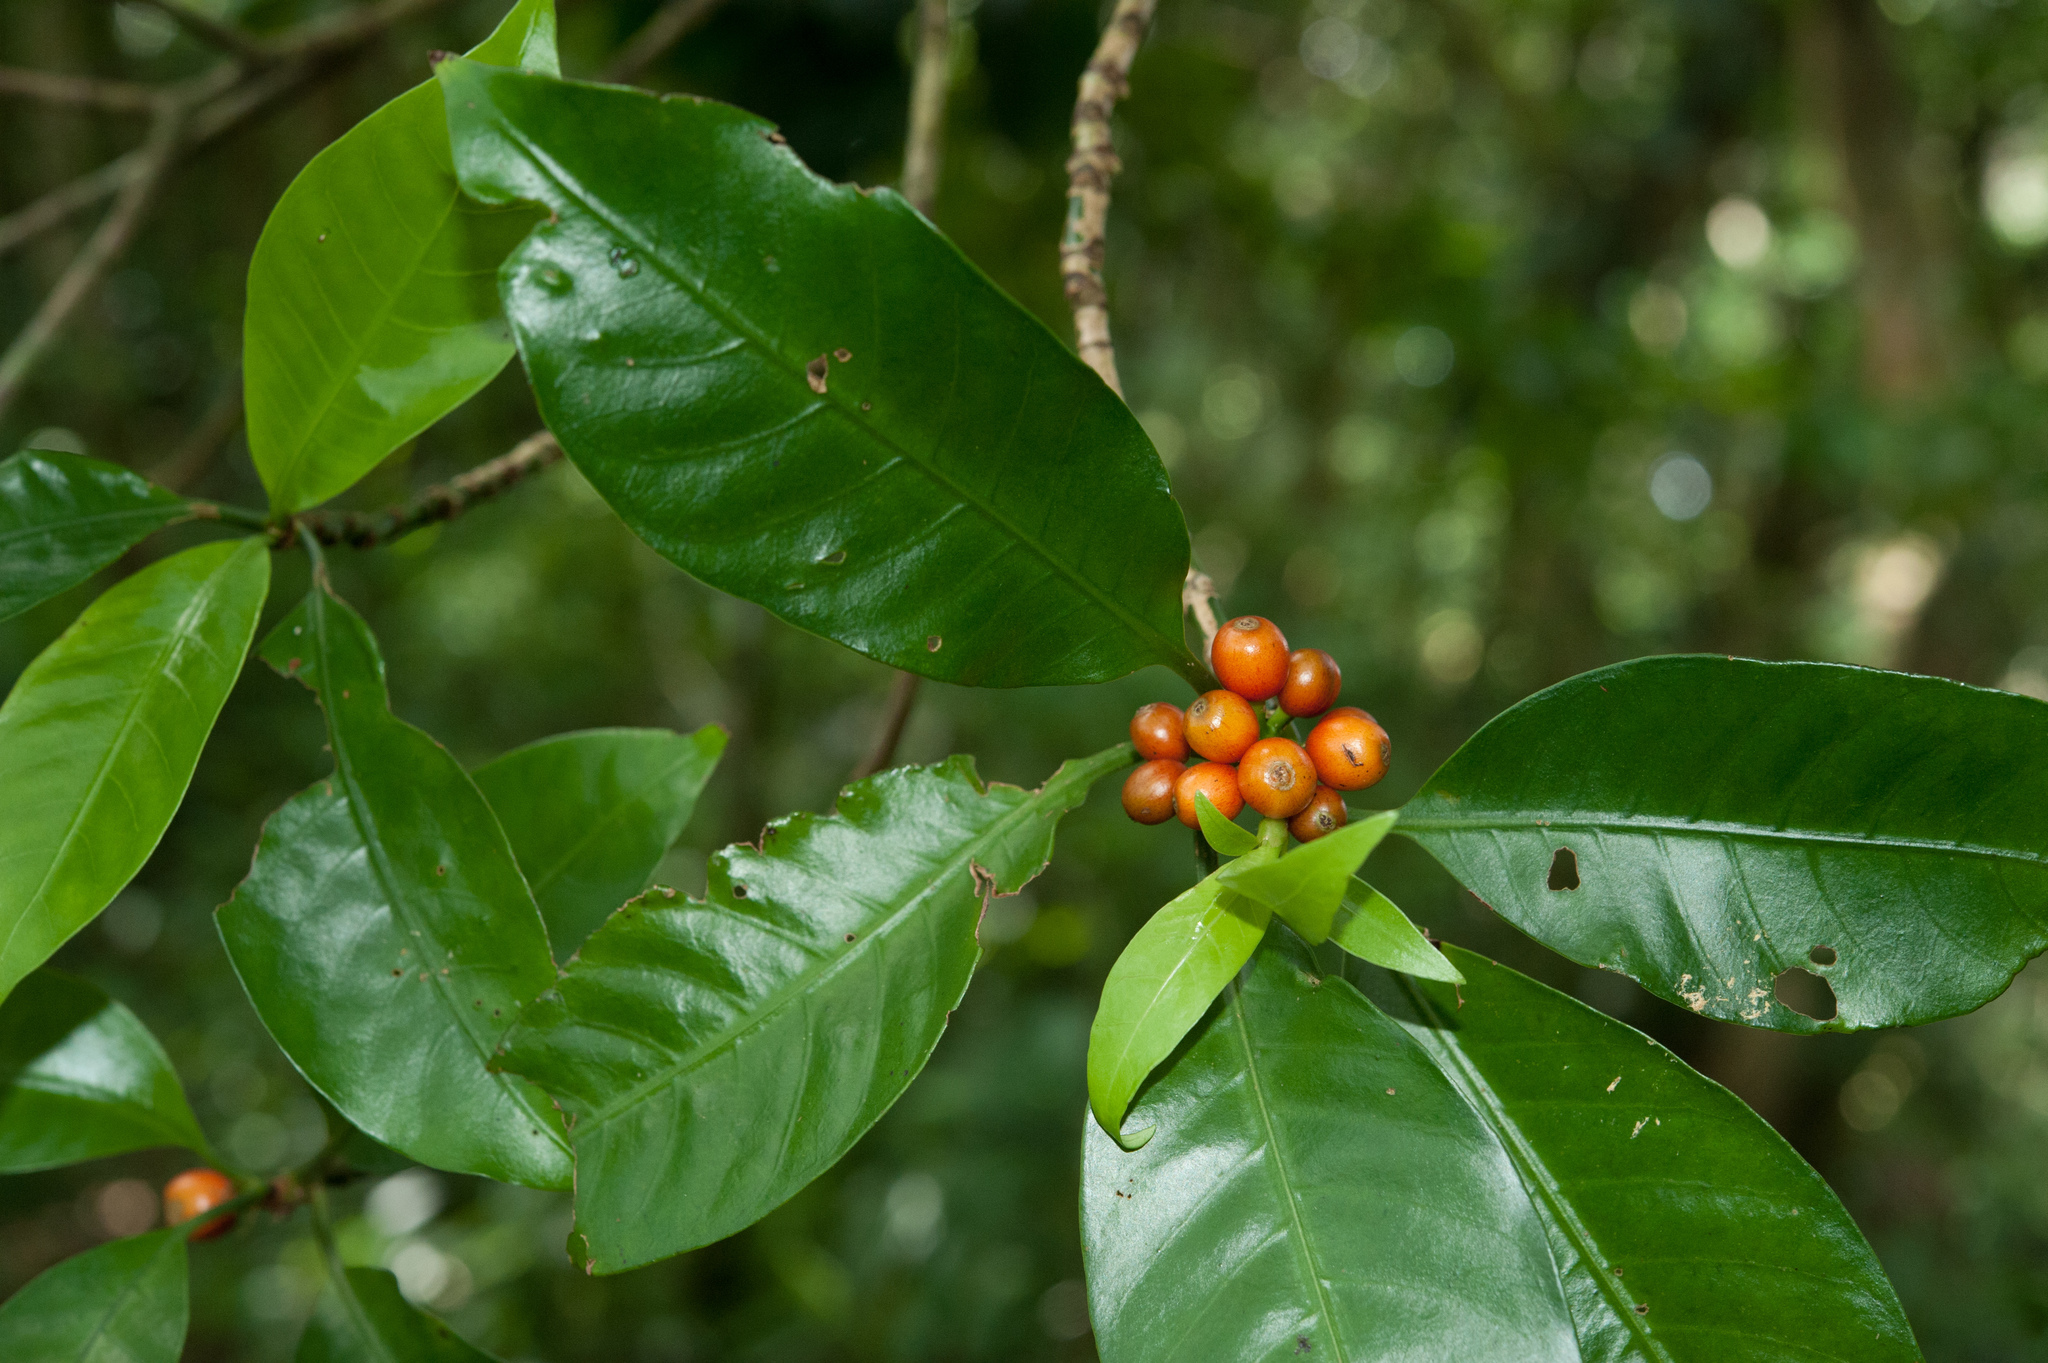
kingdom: Plantae
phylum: Tracheophyta
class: Magnoliopsida
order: Gentianales
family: Rubiaceae
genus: Psychotria
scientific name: Psychotria cephalophora
